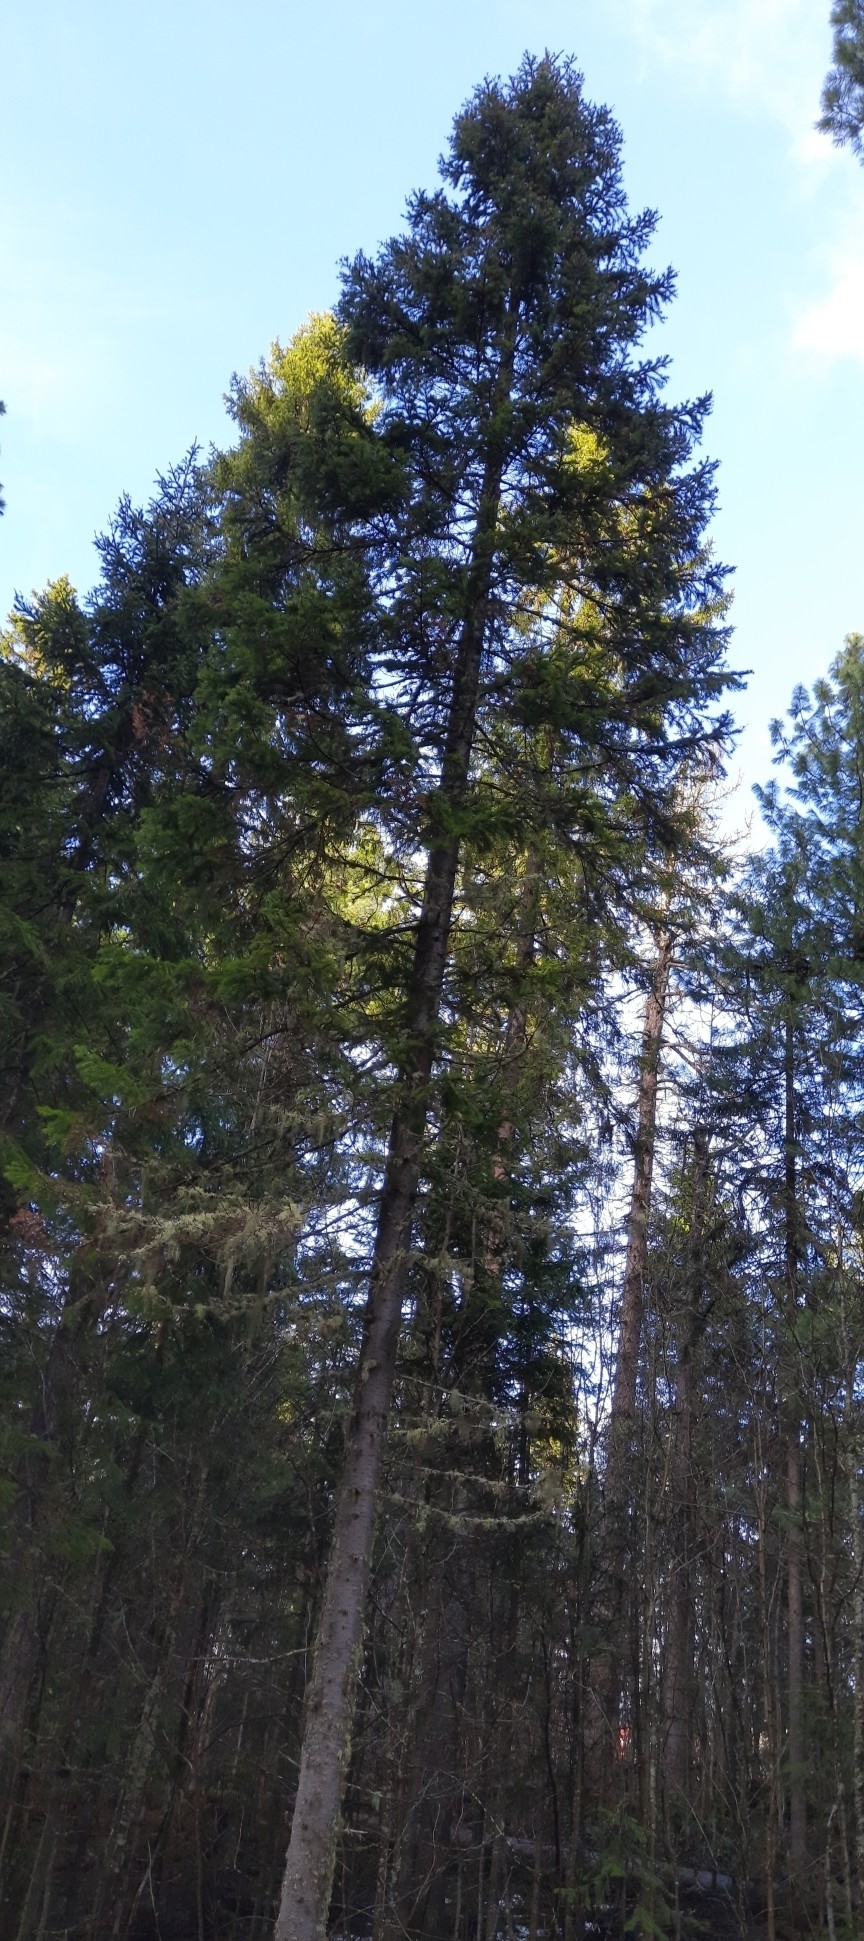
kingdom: Plantae
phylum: Tracheophyta
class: Pinopsida
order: Pinales
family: Pinaceae
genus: Abies
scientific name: Abies sibirica
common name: Siberian fir
